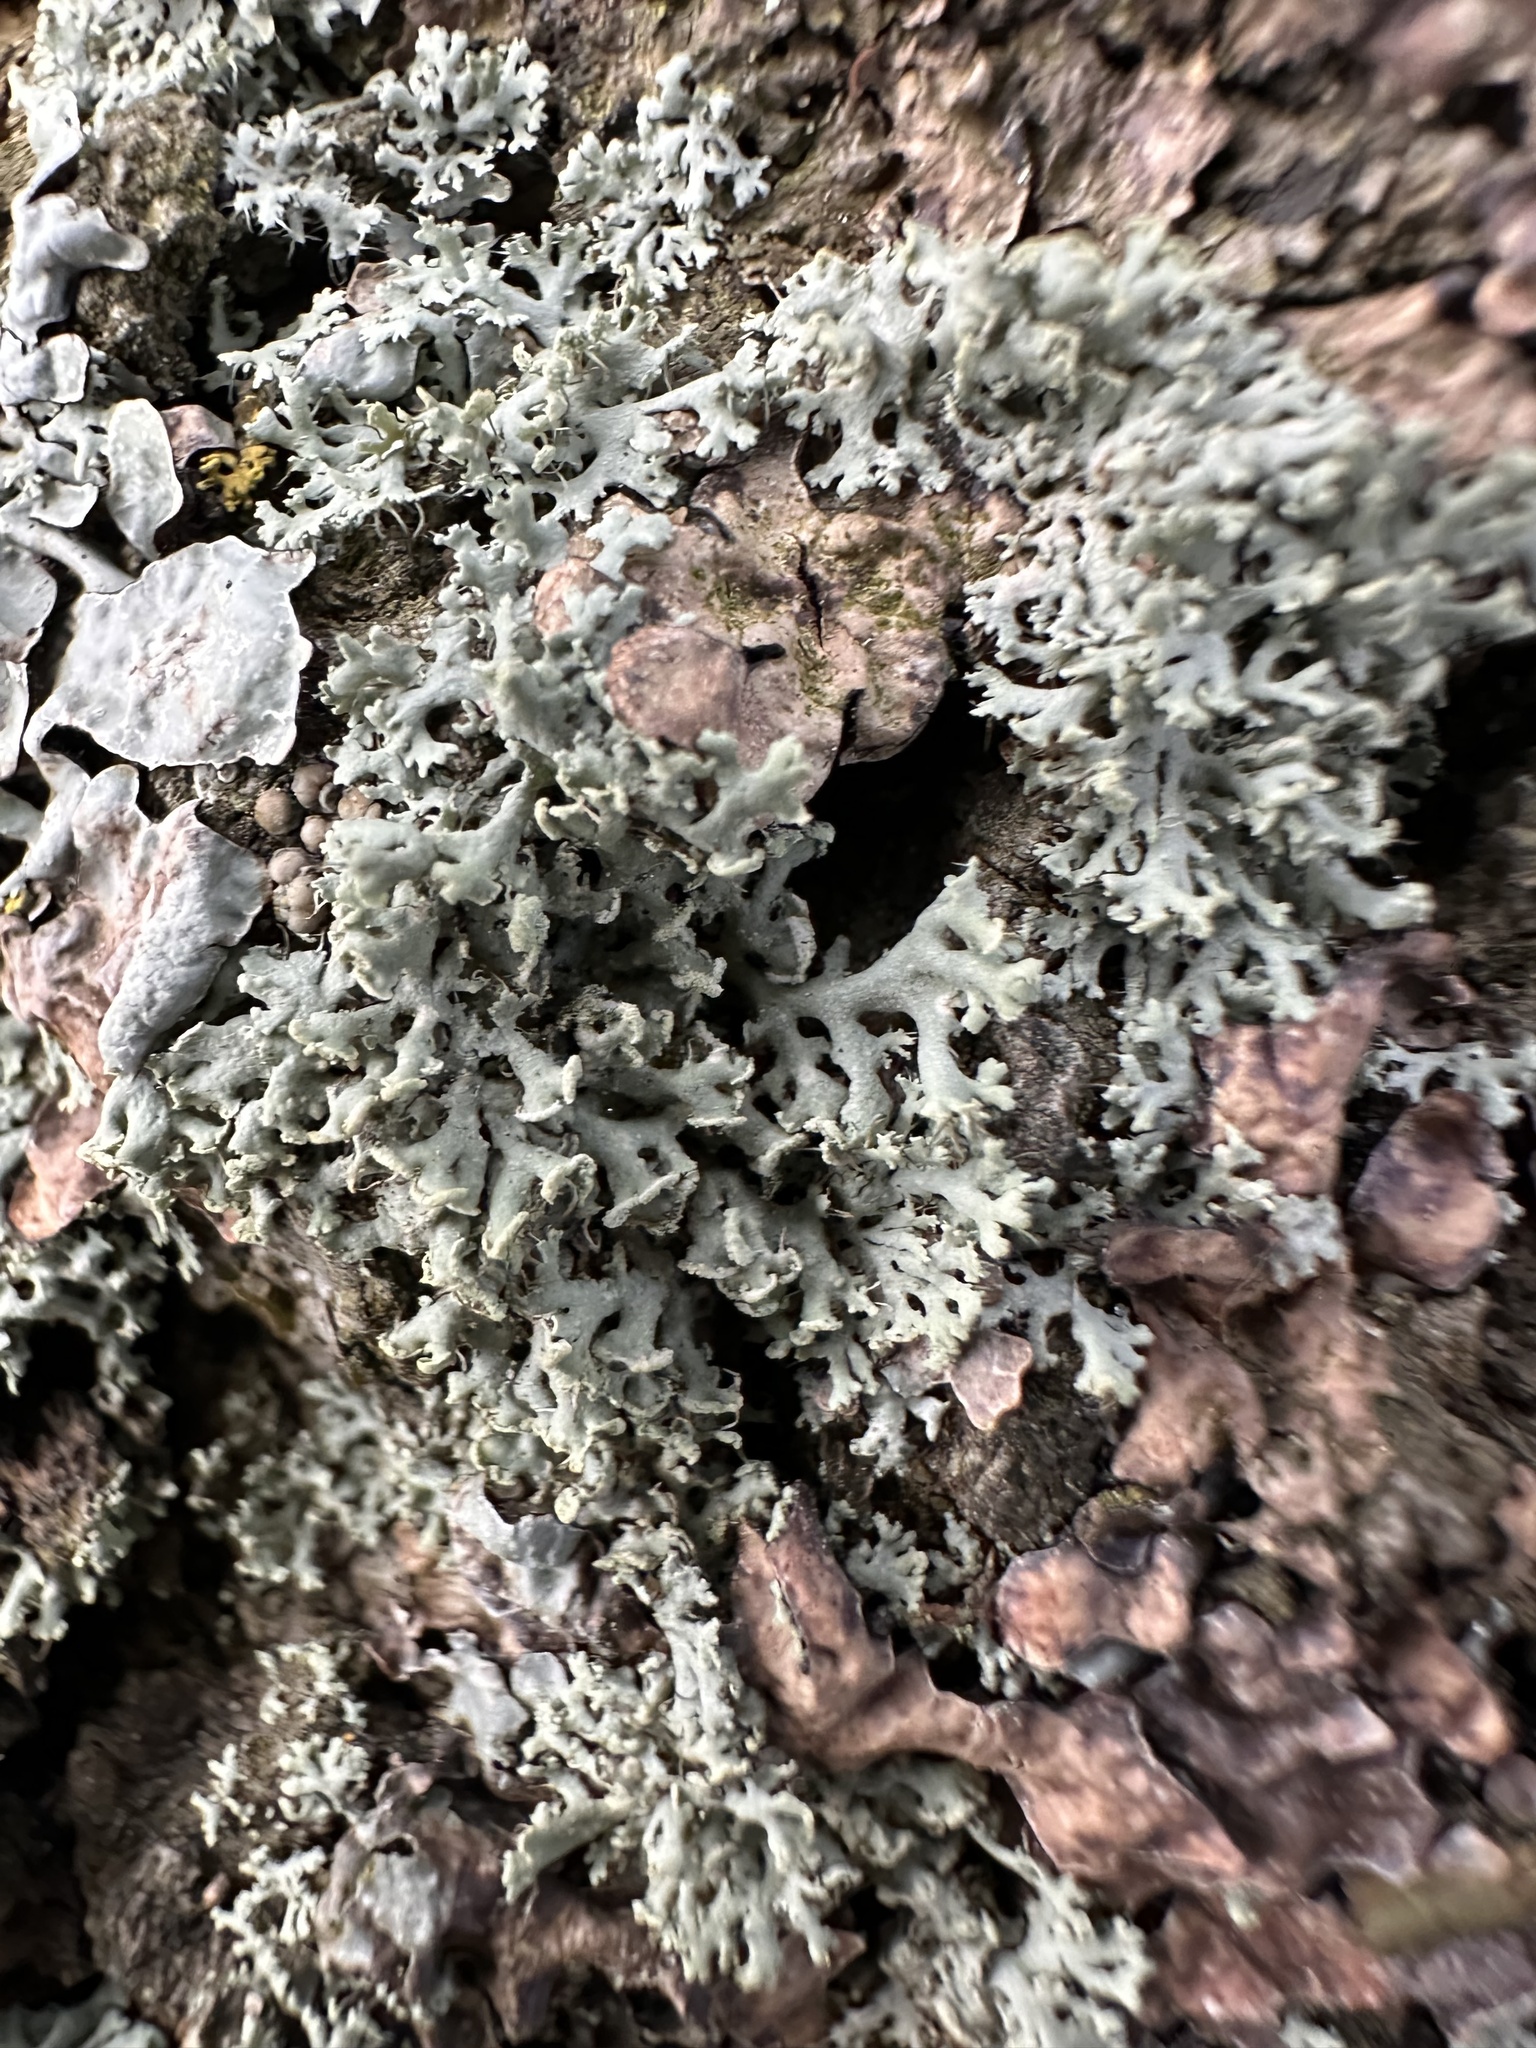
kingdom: Fungi
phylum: Ascomycota
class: Lecanoromycetes
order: Caliciales
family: Physciaceae
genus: Physcia
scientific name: Physcia tenella
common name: Fringed rosette lichen
